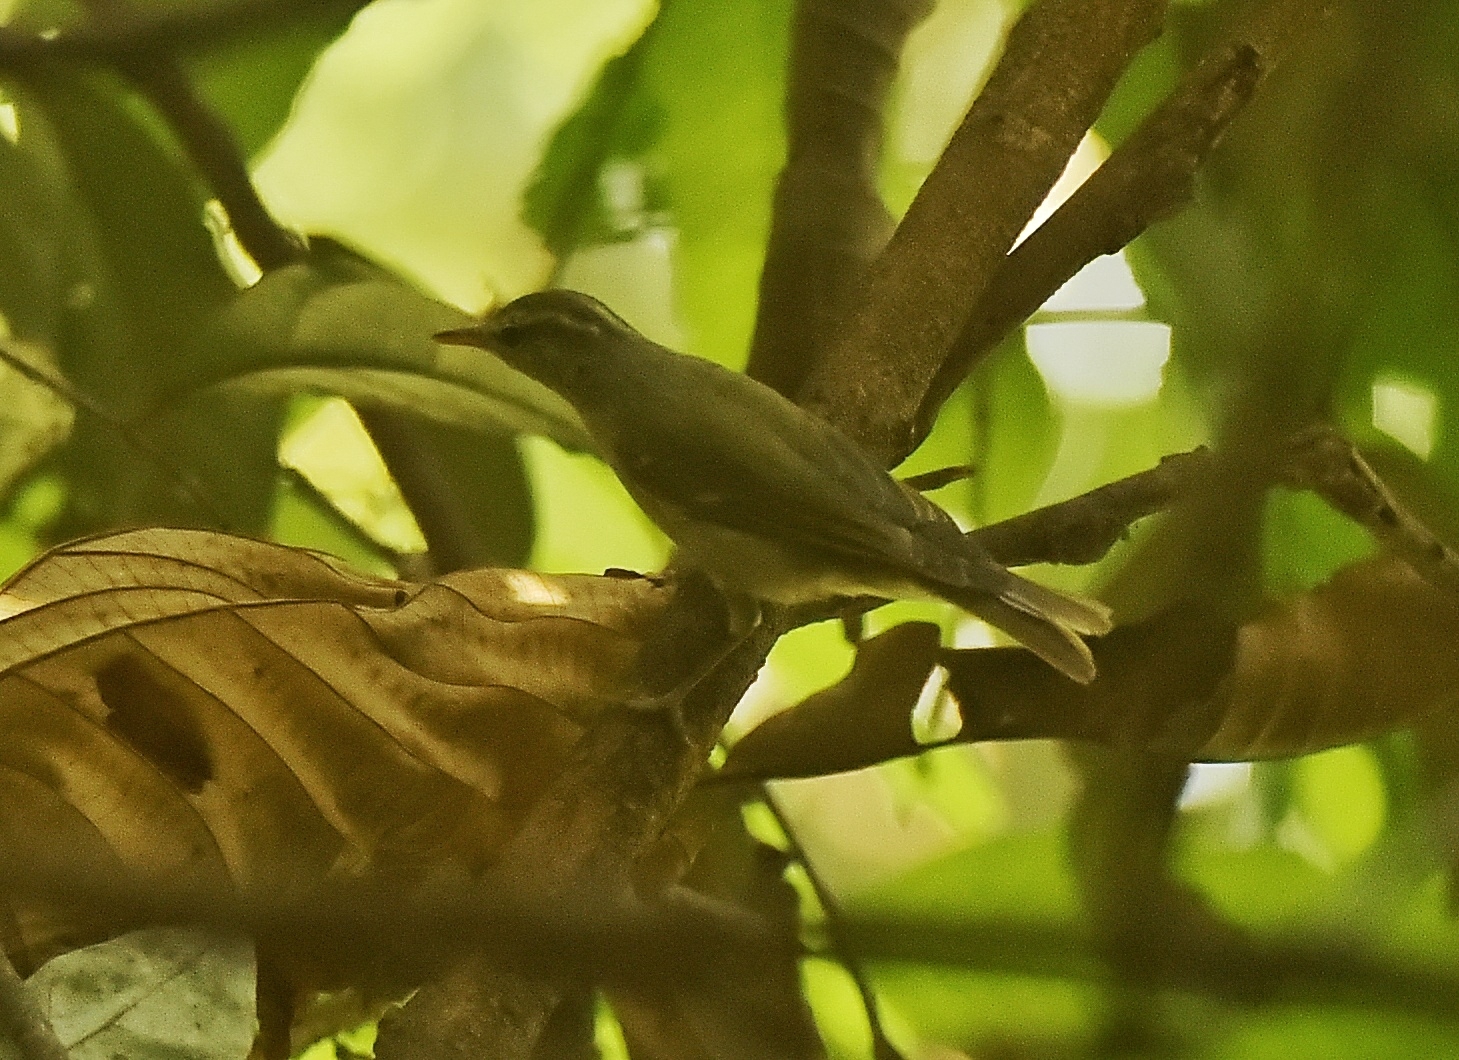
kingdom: Animalia
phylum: Chordata
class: Aves
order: Passeriformes
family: Phylloscopidae
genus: Phylloscopus
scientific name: Phylloscopus occipitalis
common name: Western crowned warbler
